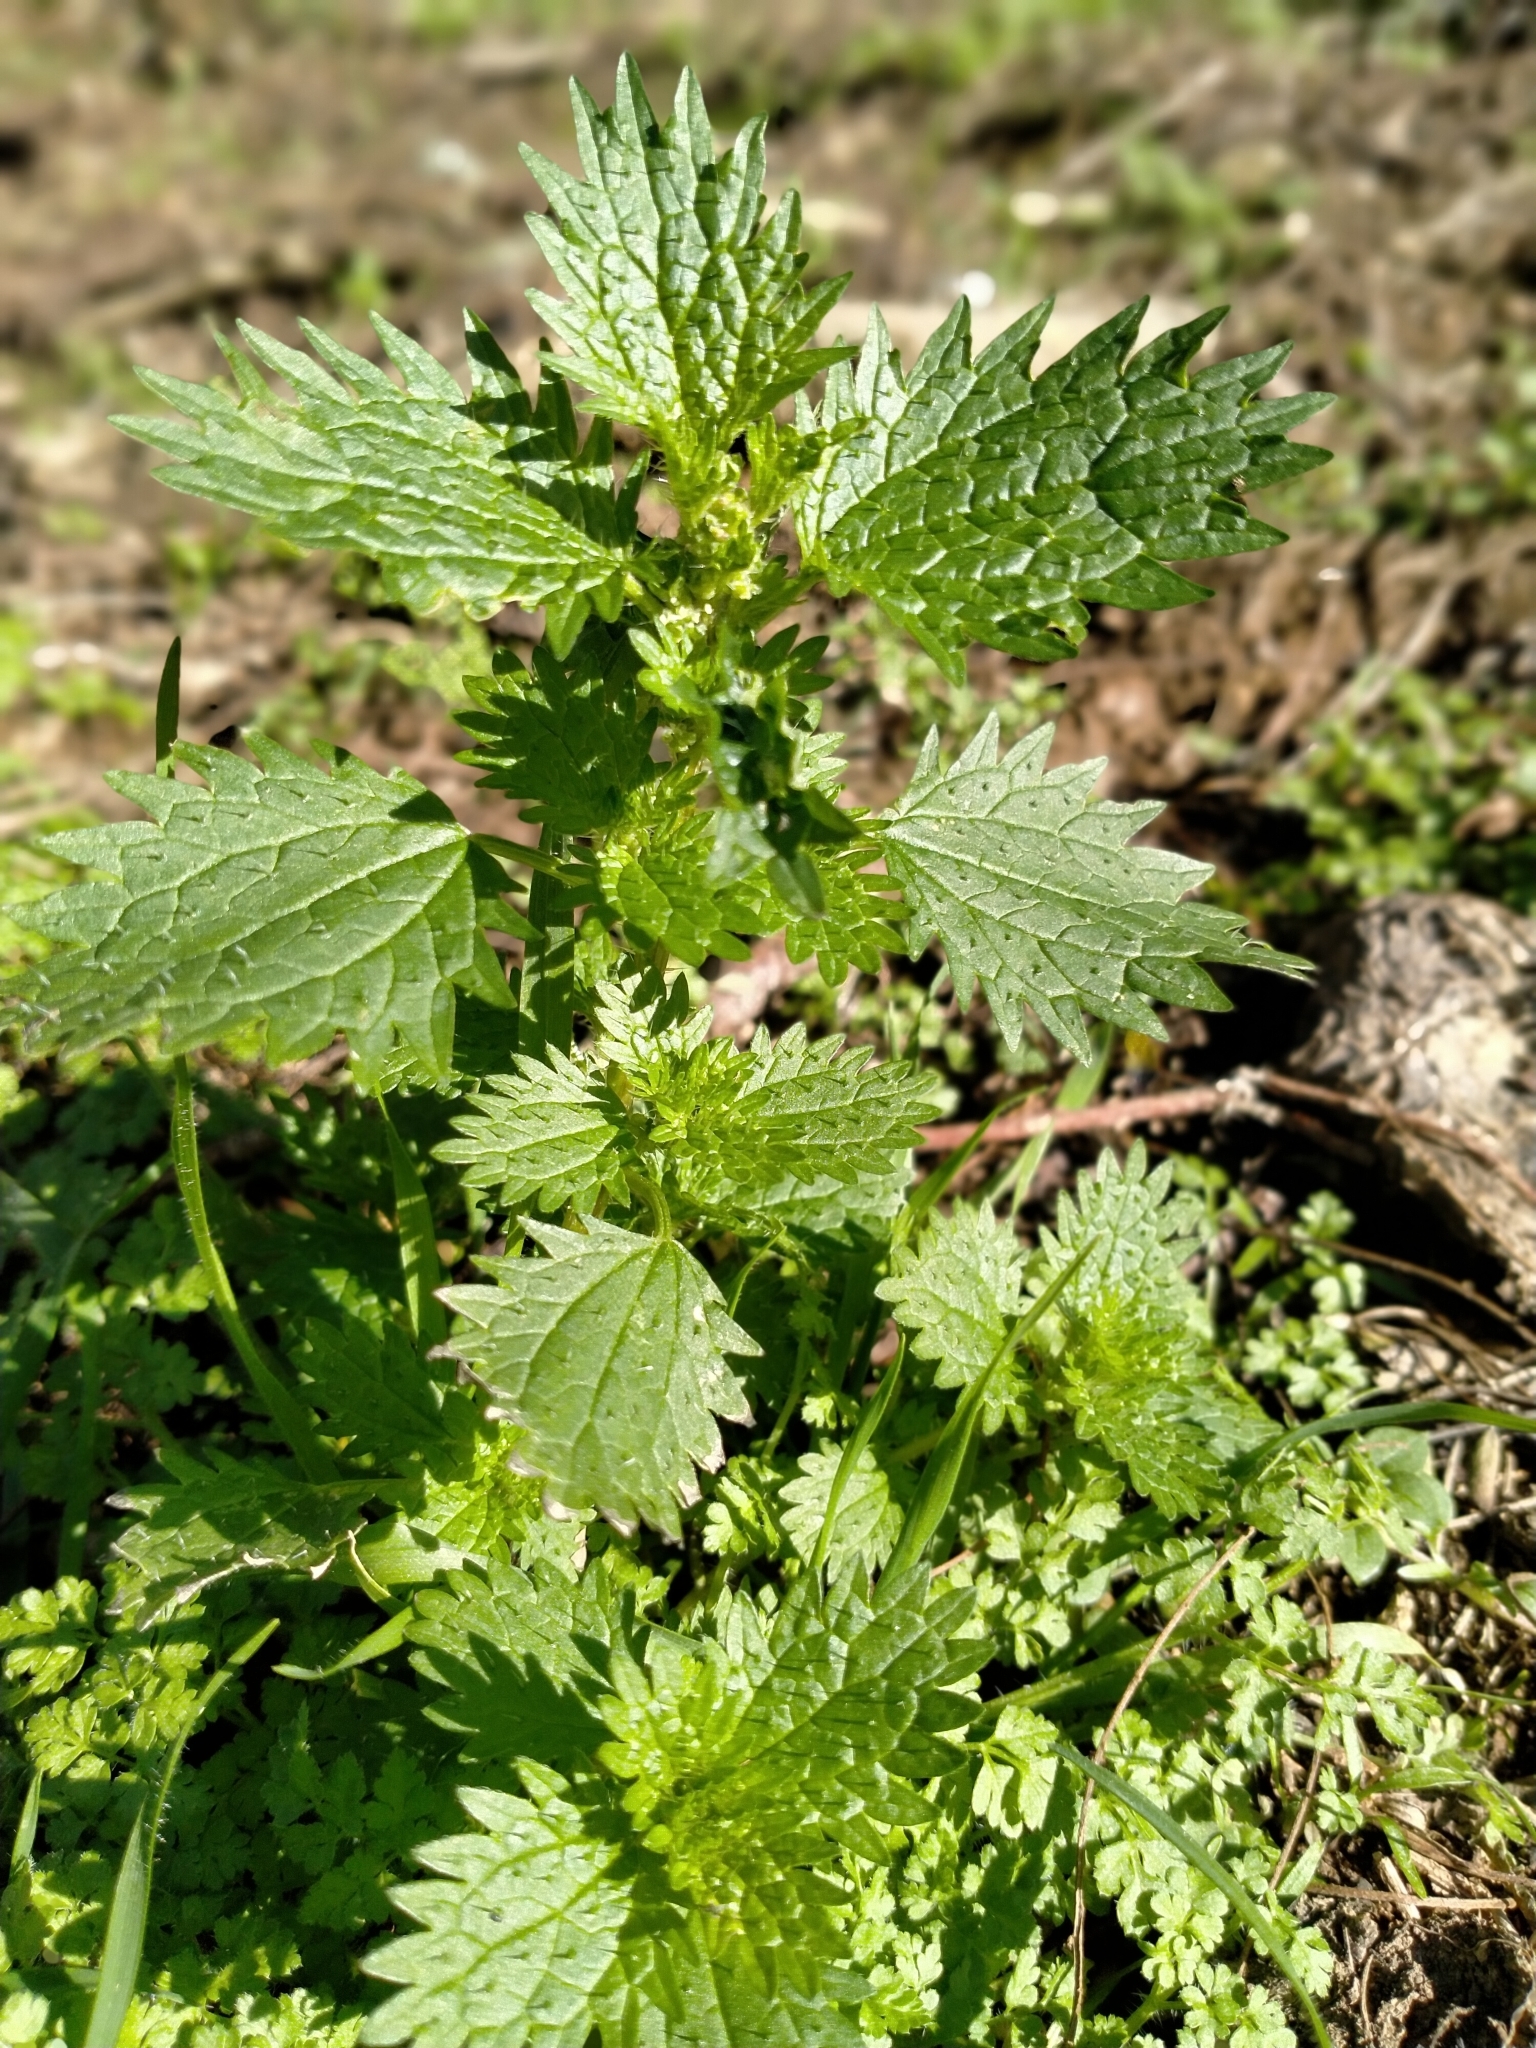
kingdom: Plantae
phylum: Tracheophyta
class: Magnoliopsida
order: Rosales
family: Urticaceae
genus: Urtica
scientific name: Urtica urens
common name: Dwarf nettle
